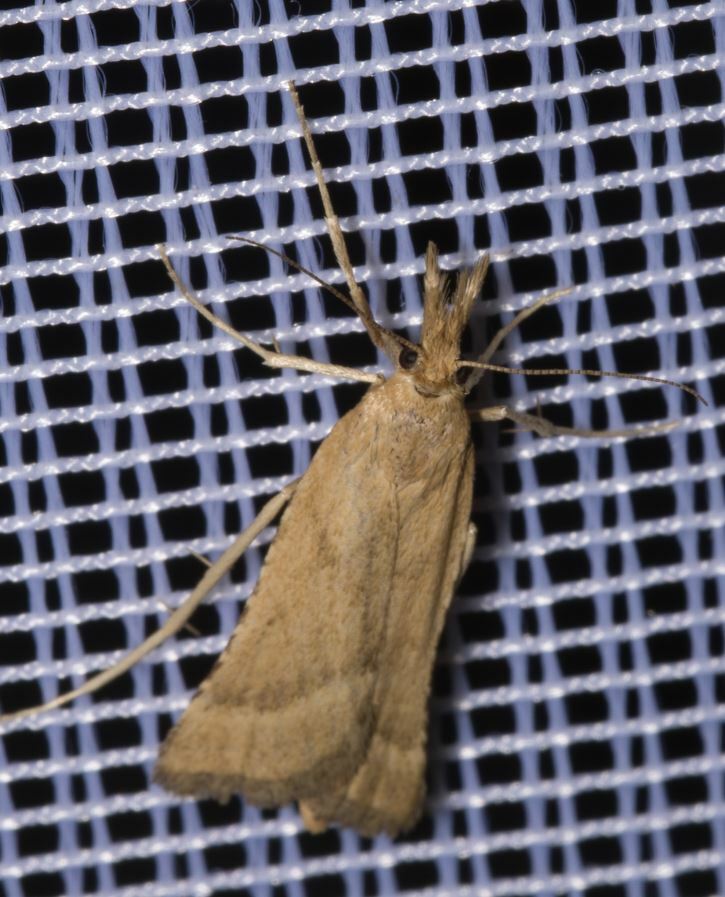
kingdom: Animalia
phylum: Arthropoda
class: Insecta
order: Lepidoptera
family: Pyralidae
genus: Synaphe
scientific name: Synaphe punctalis
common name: Long-legged tabby
